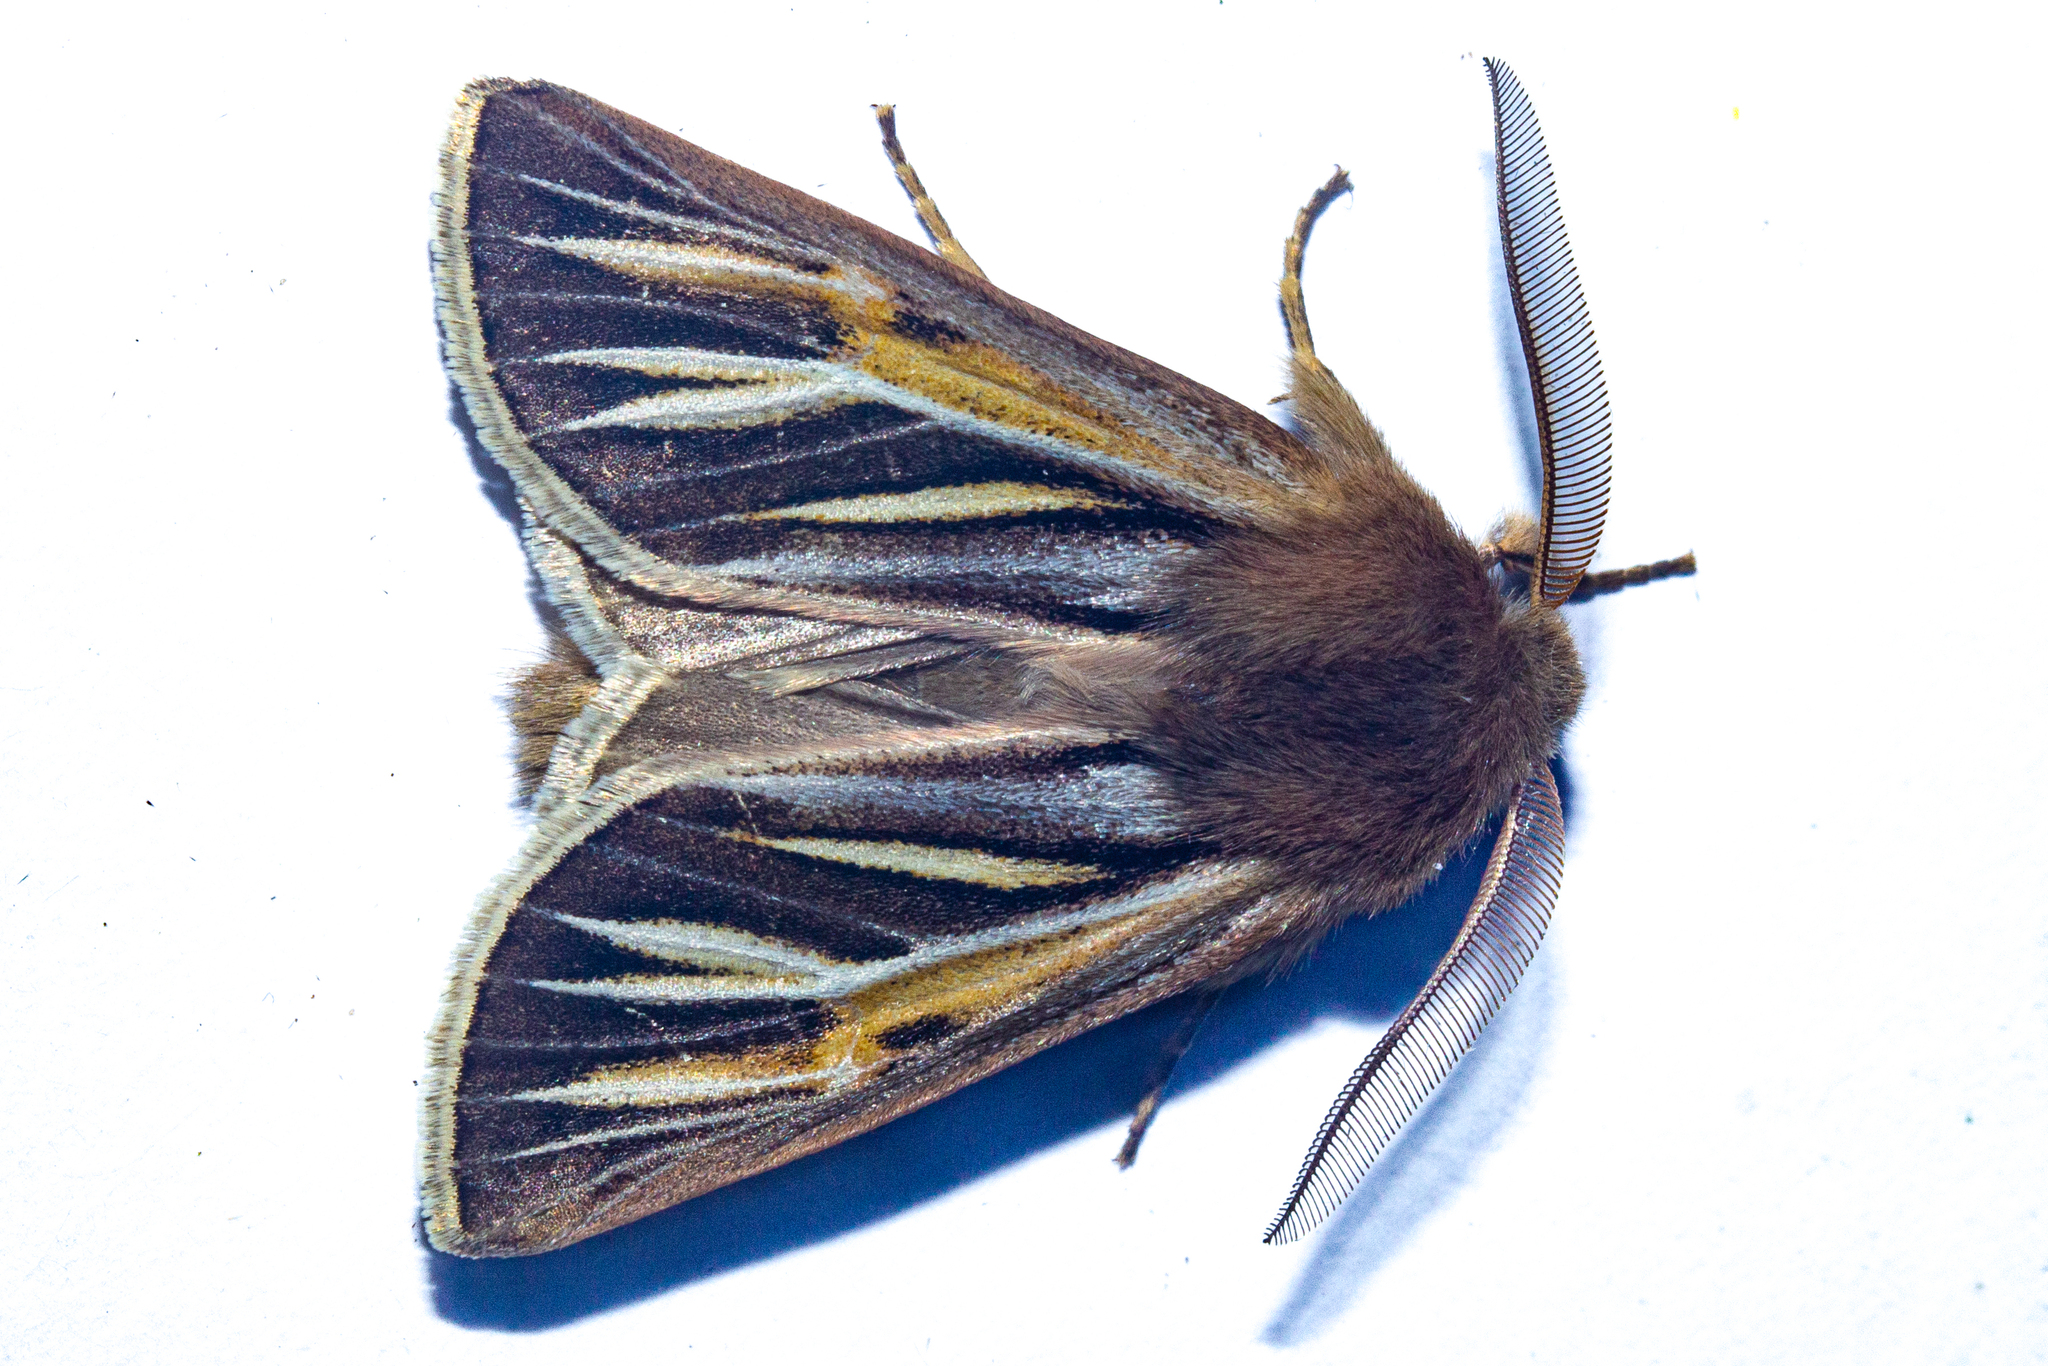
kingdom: Animalia
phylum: Arthropoda
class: Insecta
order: Lepidoptera
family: Noctuidae
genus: Ichneutica
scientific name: Ichneutica caraunias
